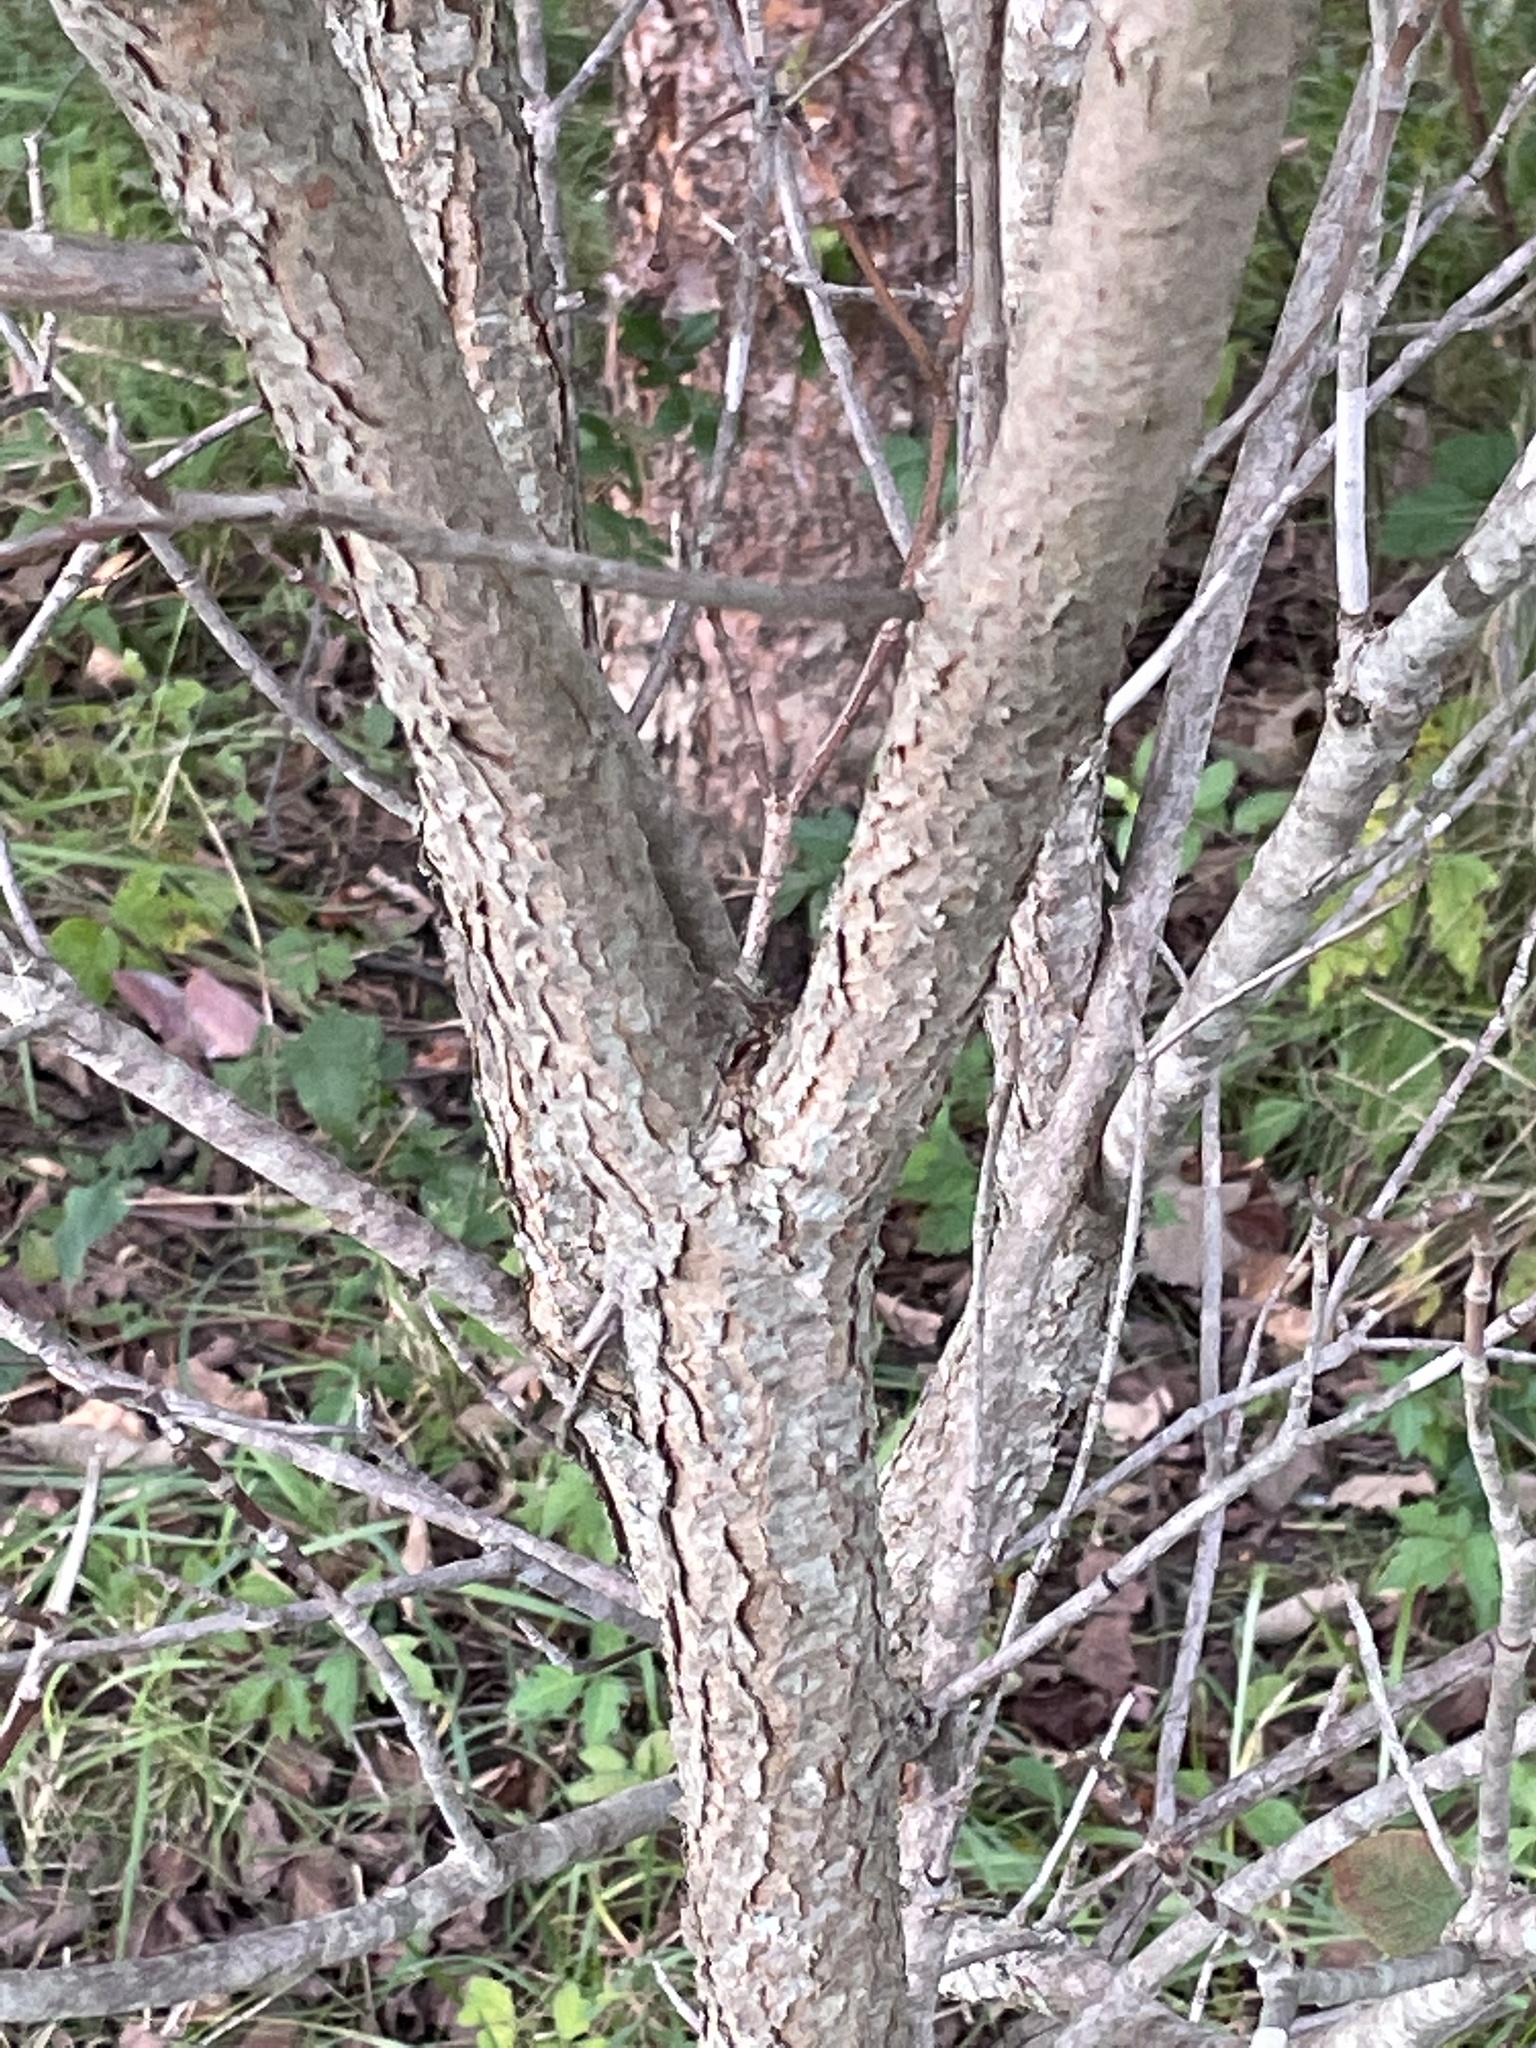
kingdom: Plantae
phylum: Tracheophyta
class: Magnoliopsida
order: Cornales
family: Cornaceae
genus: Cornus
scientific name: Cornus florida
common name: Flowering dogwood
